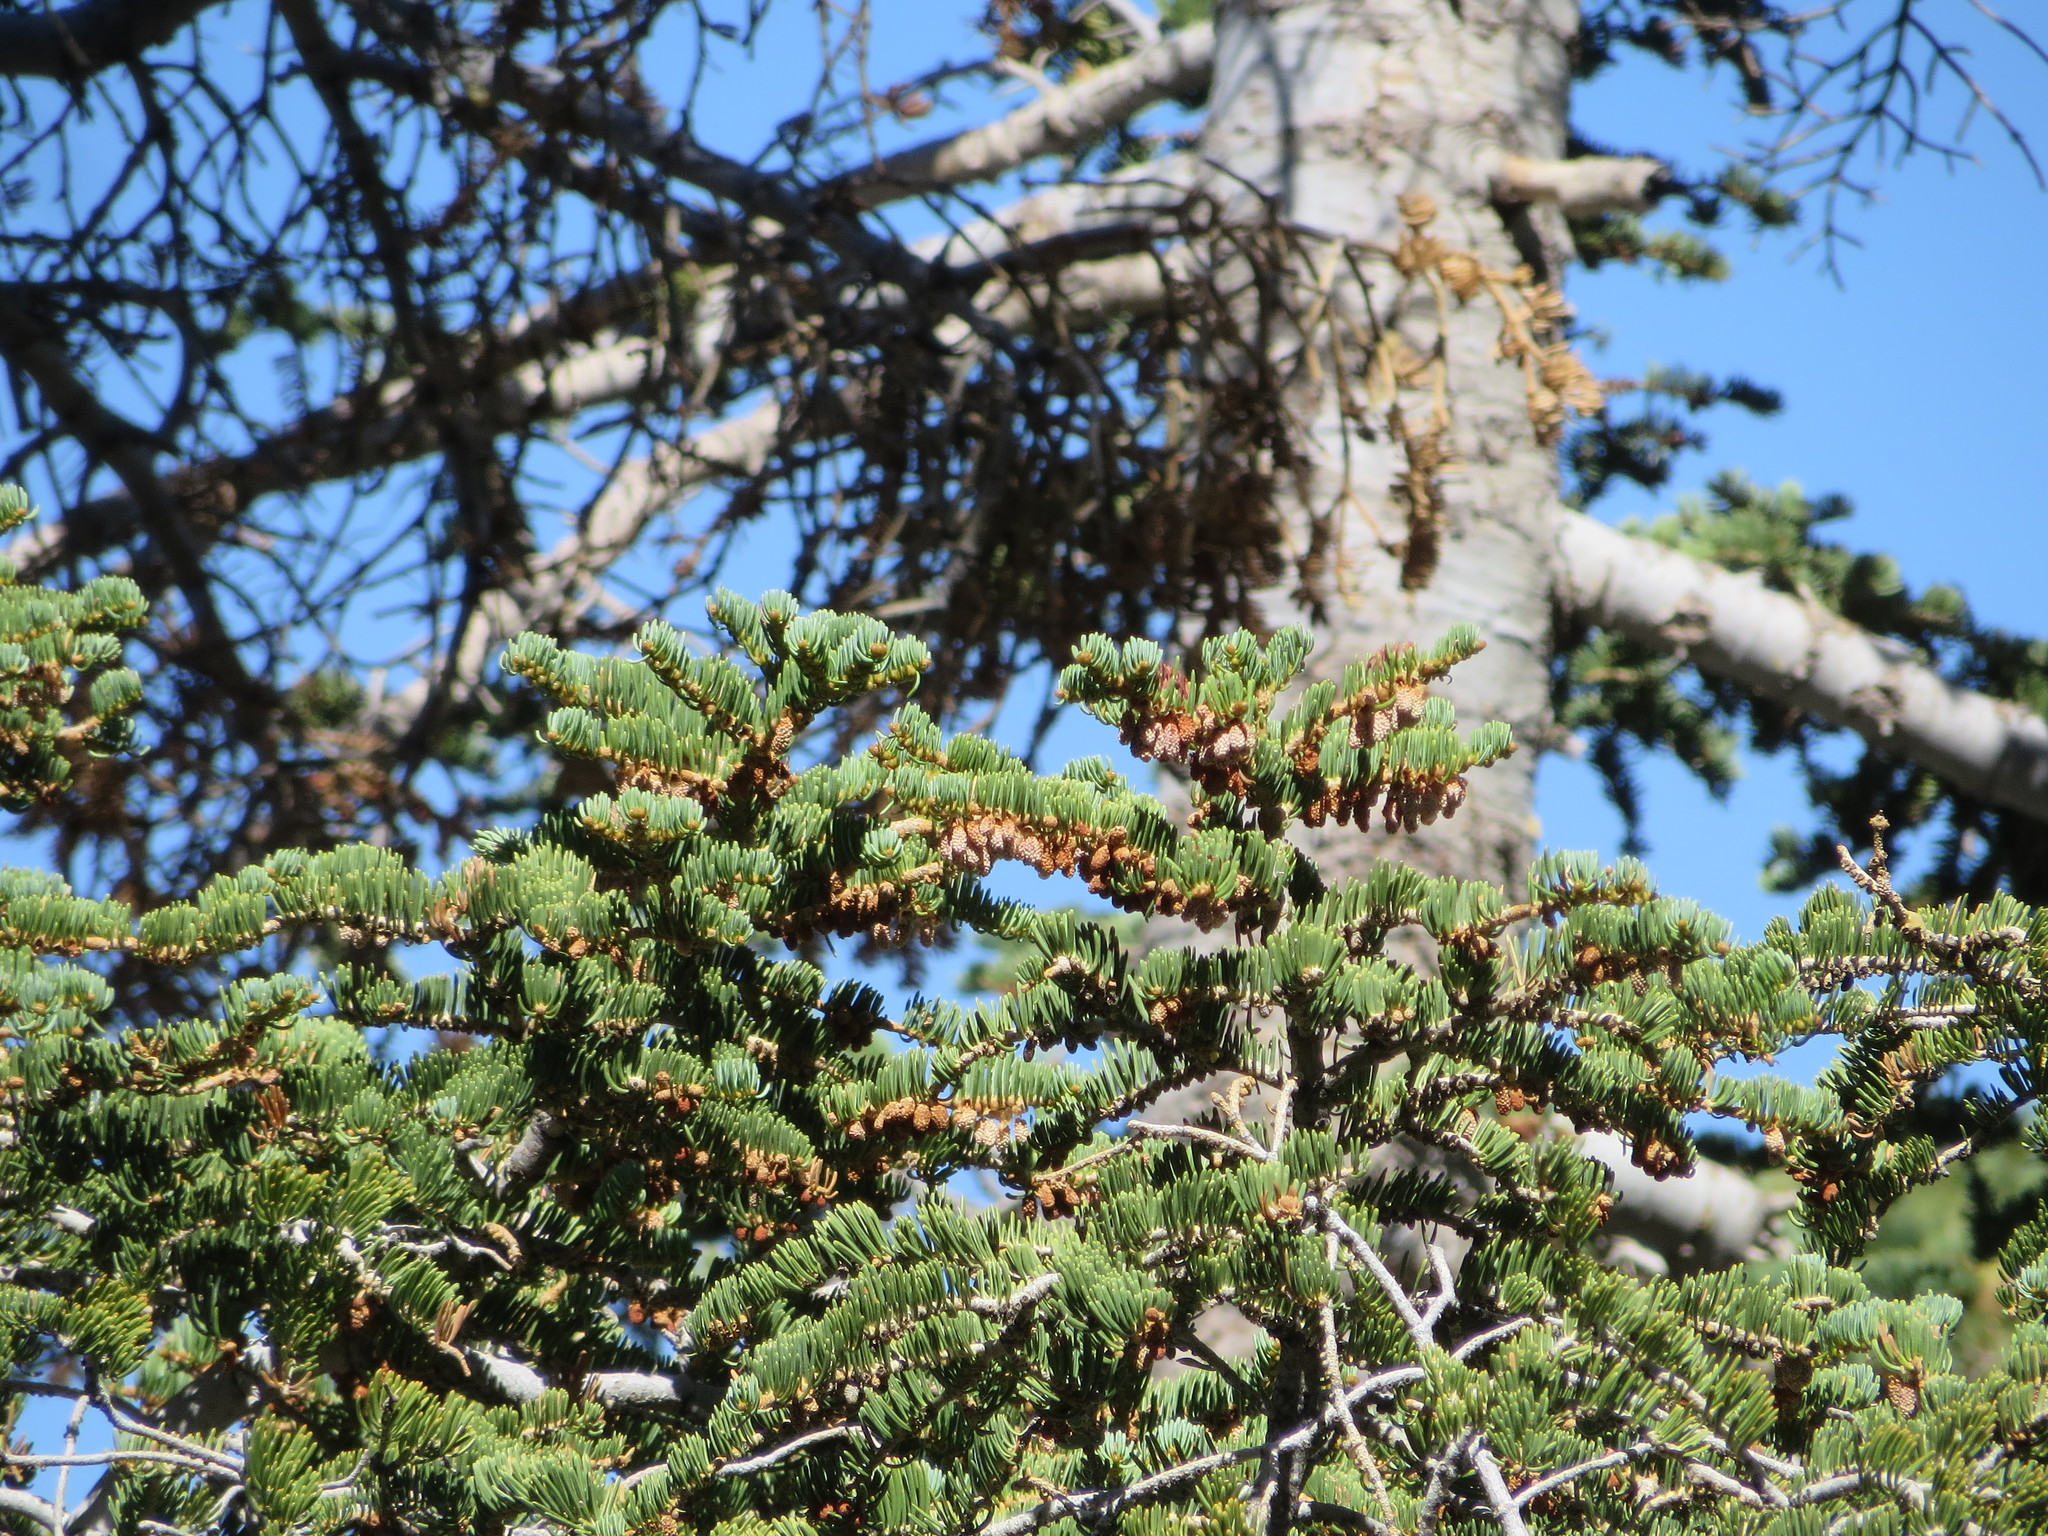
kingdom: Plantae
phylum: Tracheophyta
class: Pinopsida
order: Pinales
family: Pinaceae
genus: Abies
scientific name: Abies concolor
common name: Colorado fir
